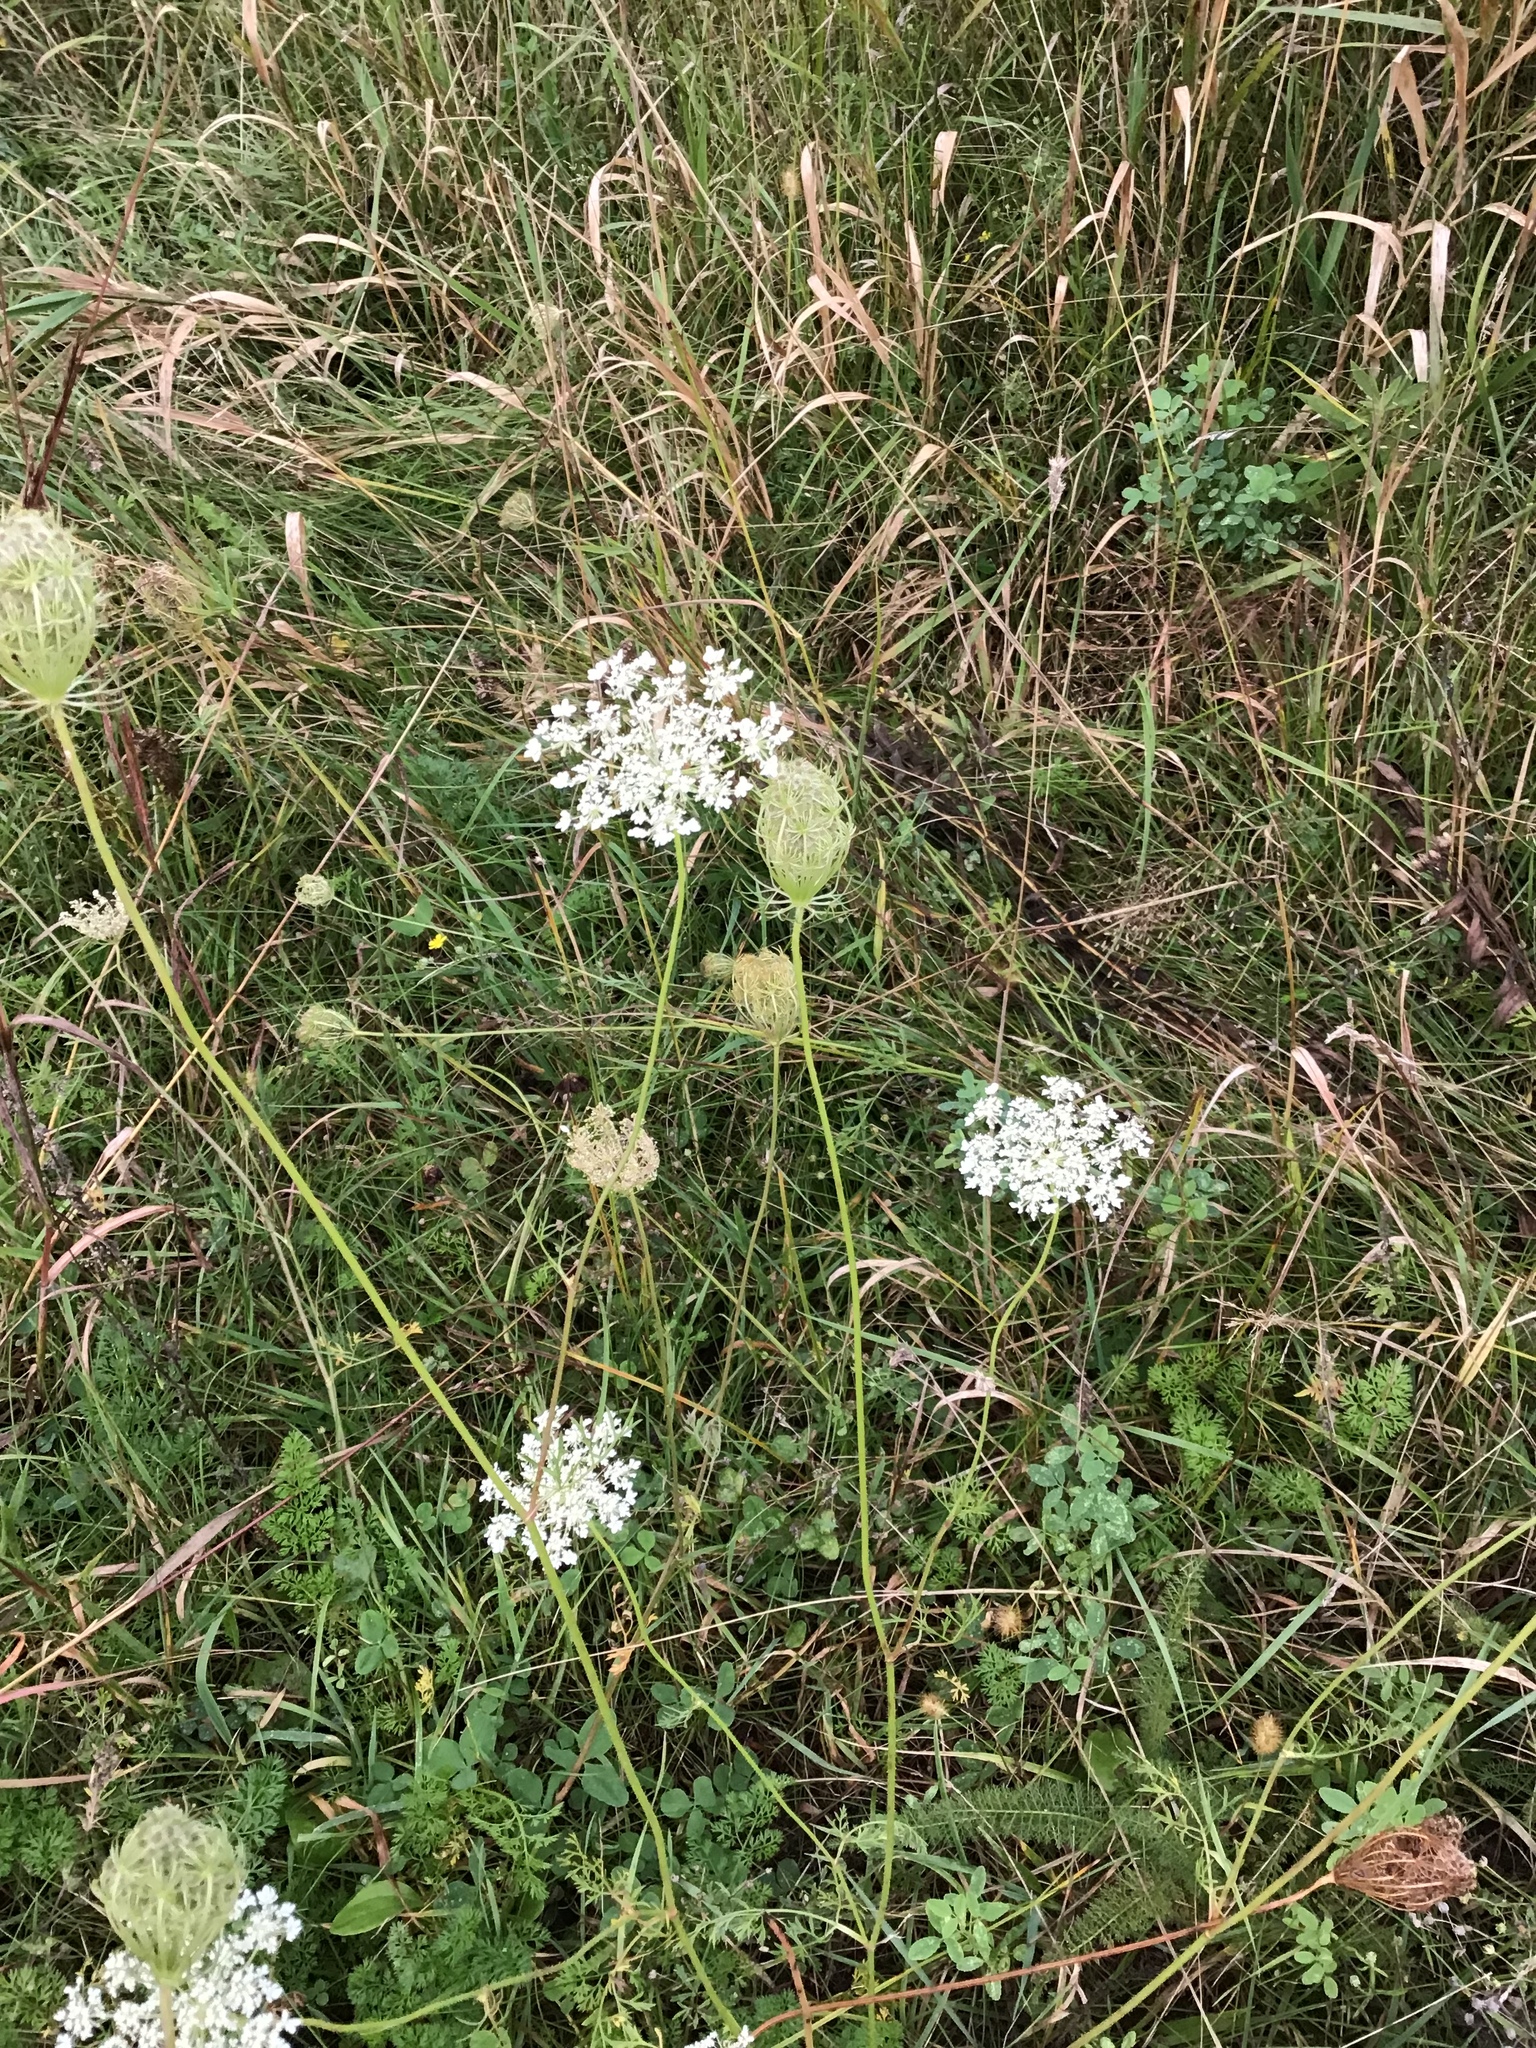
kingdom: Plantae
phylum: Tracheophyta
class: Magnoliopsida
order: Apiales
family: Apiaceae
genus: Daucus
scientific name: Daucus carota
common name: Wild carrot
